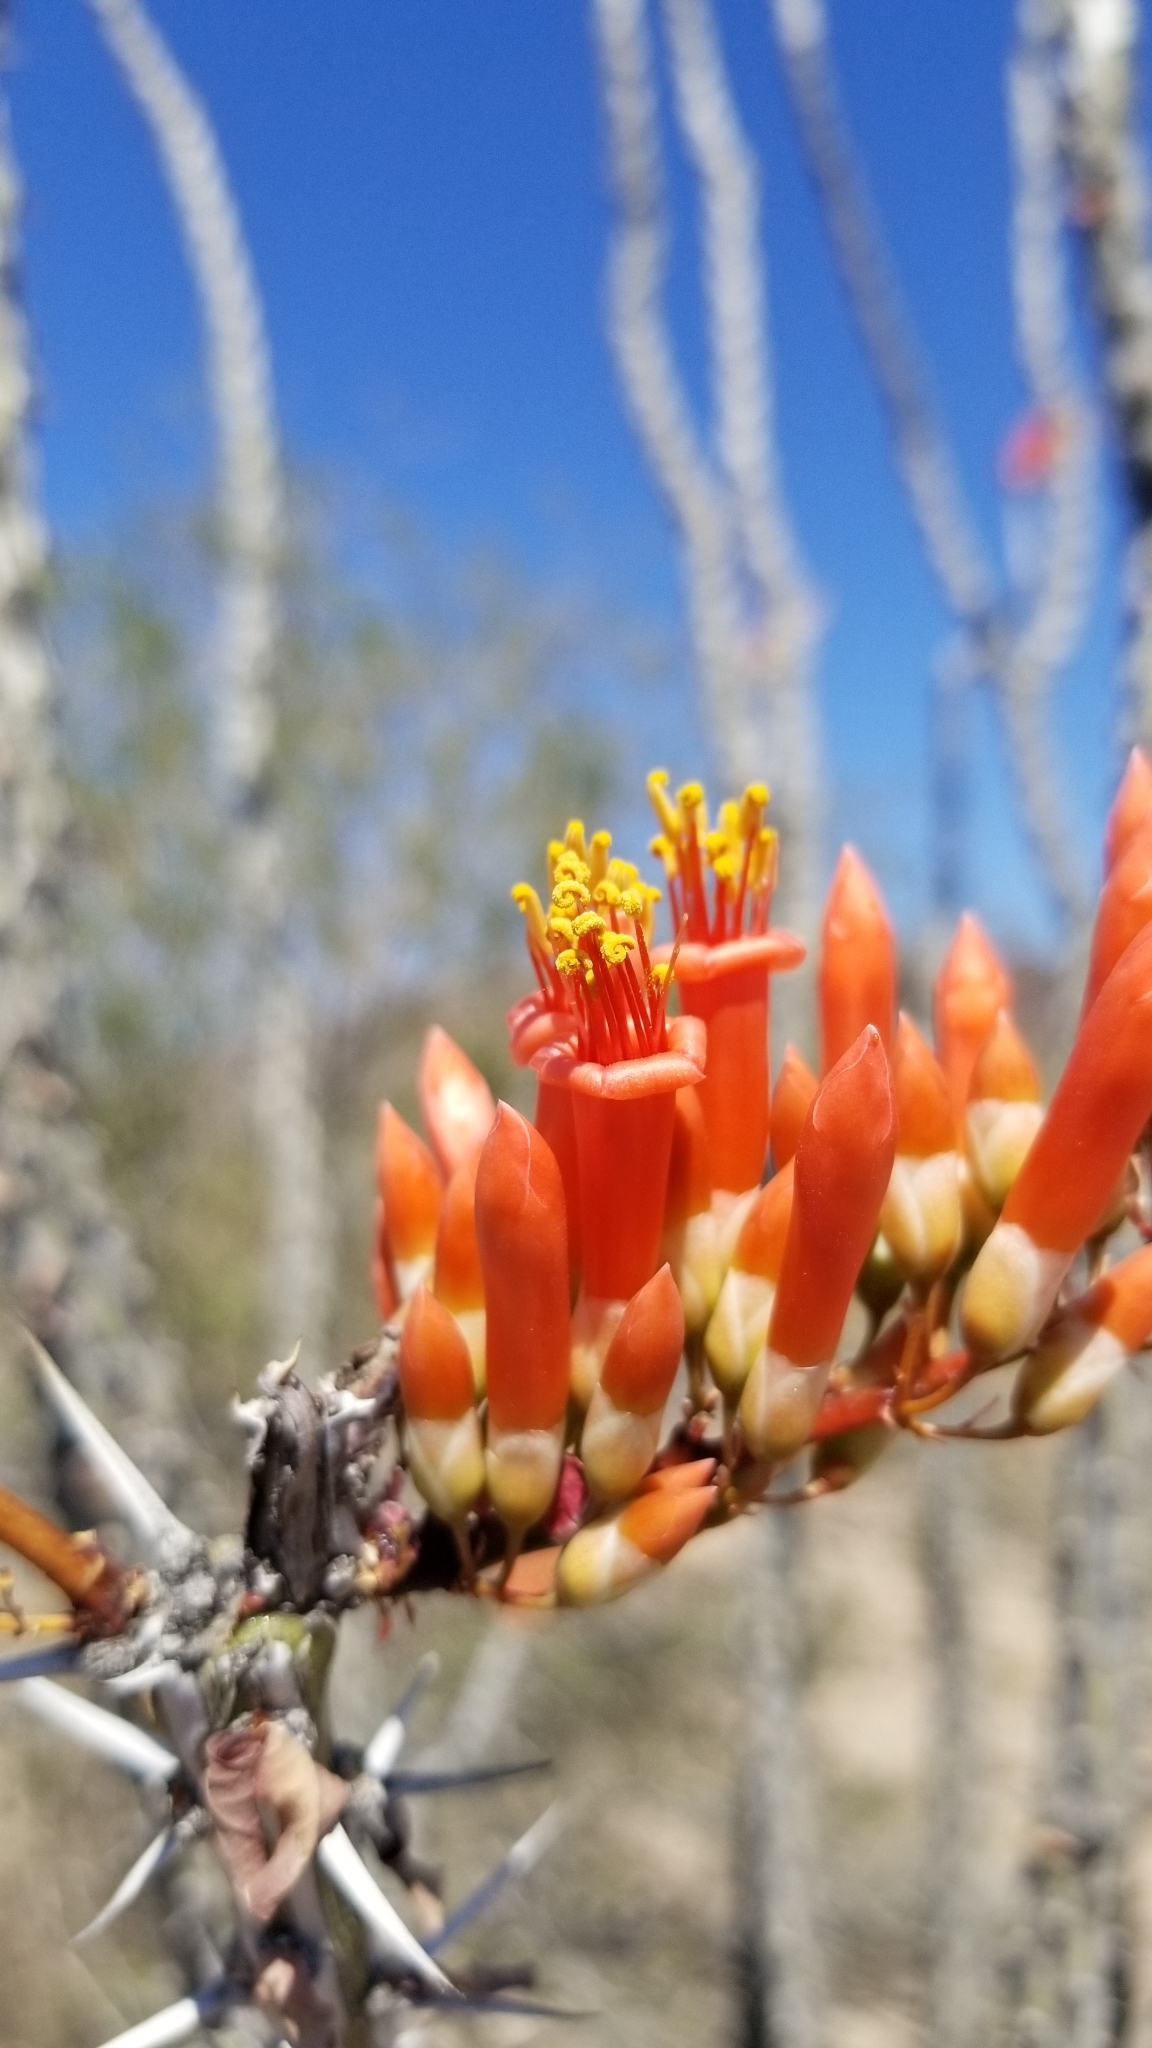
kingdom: Plantae
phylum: Tracheophyta
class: Magnoliopsida
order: Ericales
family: Fouquieriaceae
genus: Fouquieria
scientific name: Fouquieria splendens
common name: Vine-cactus
